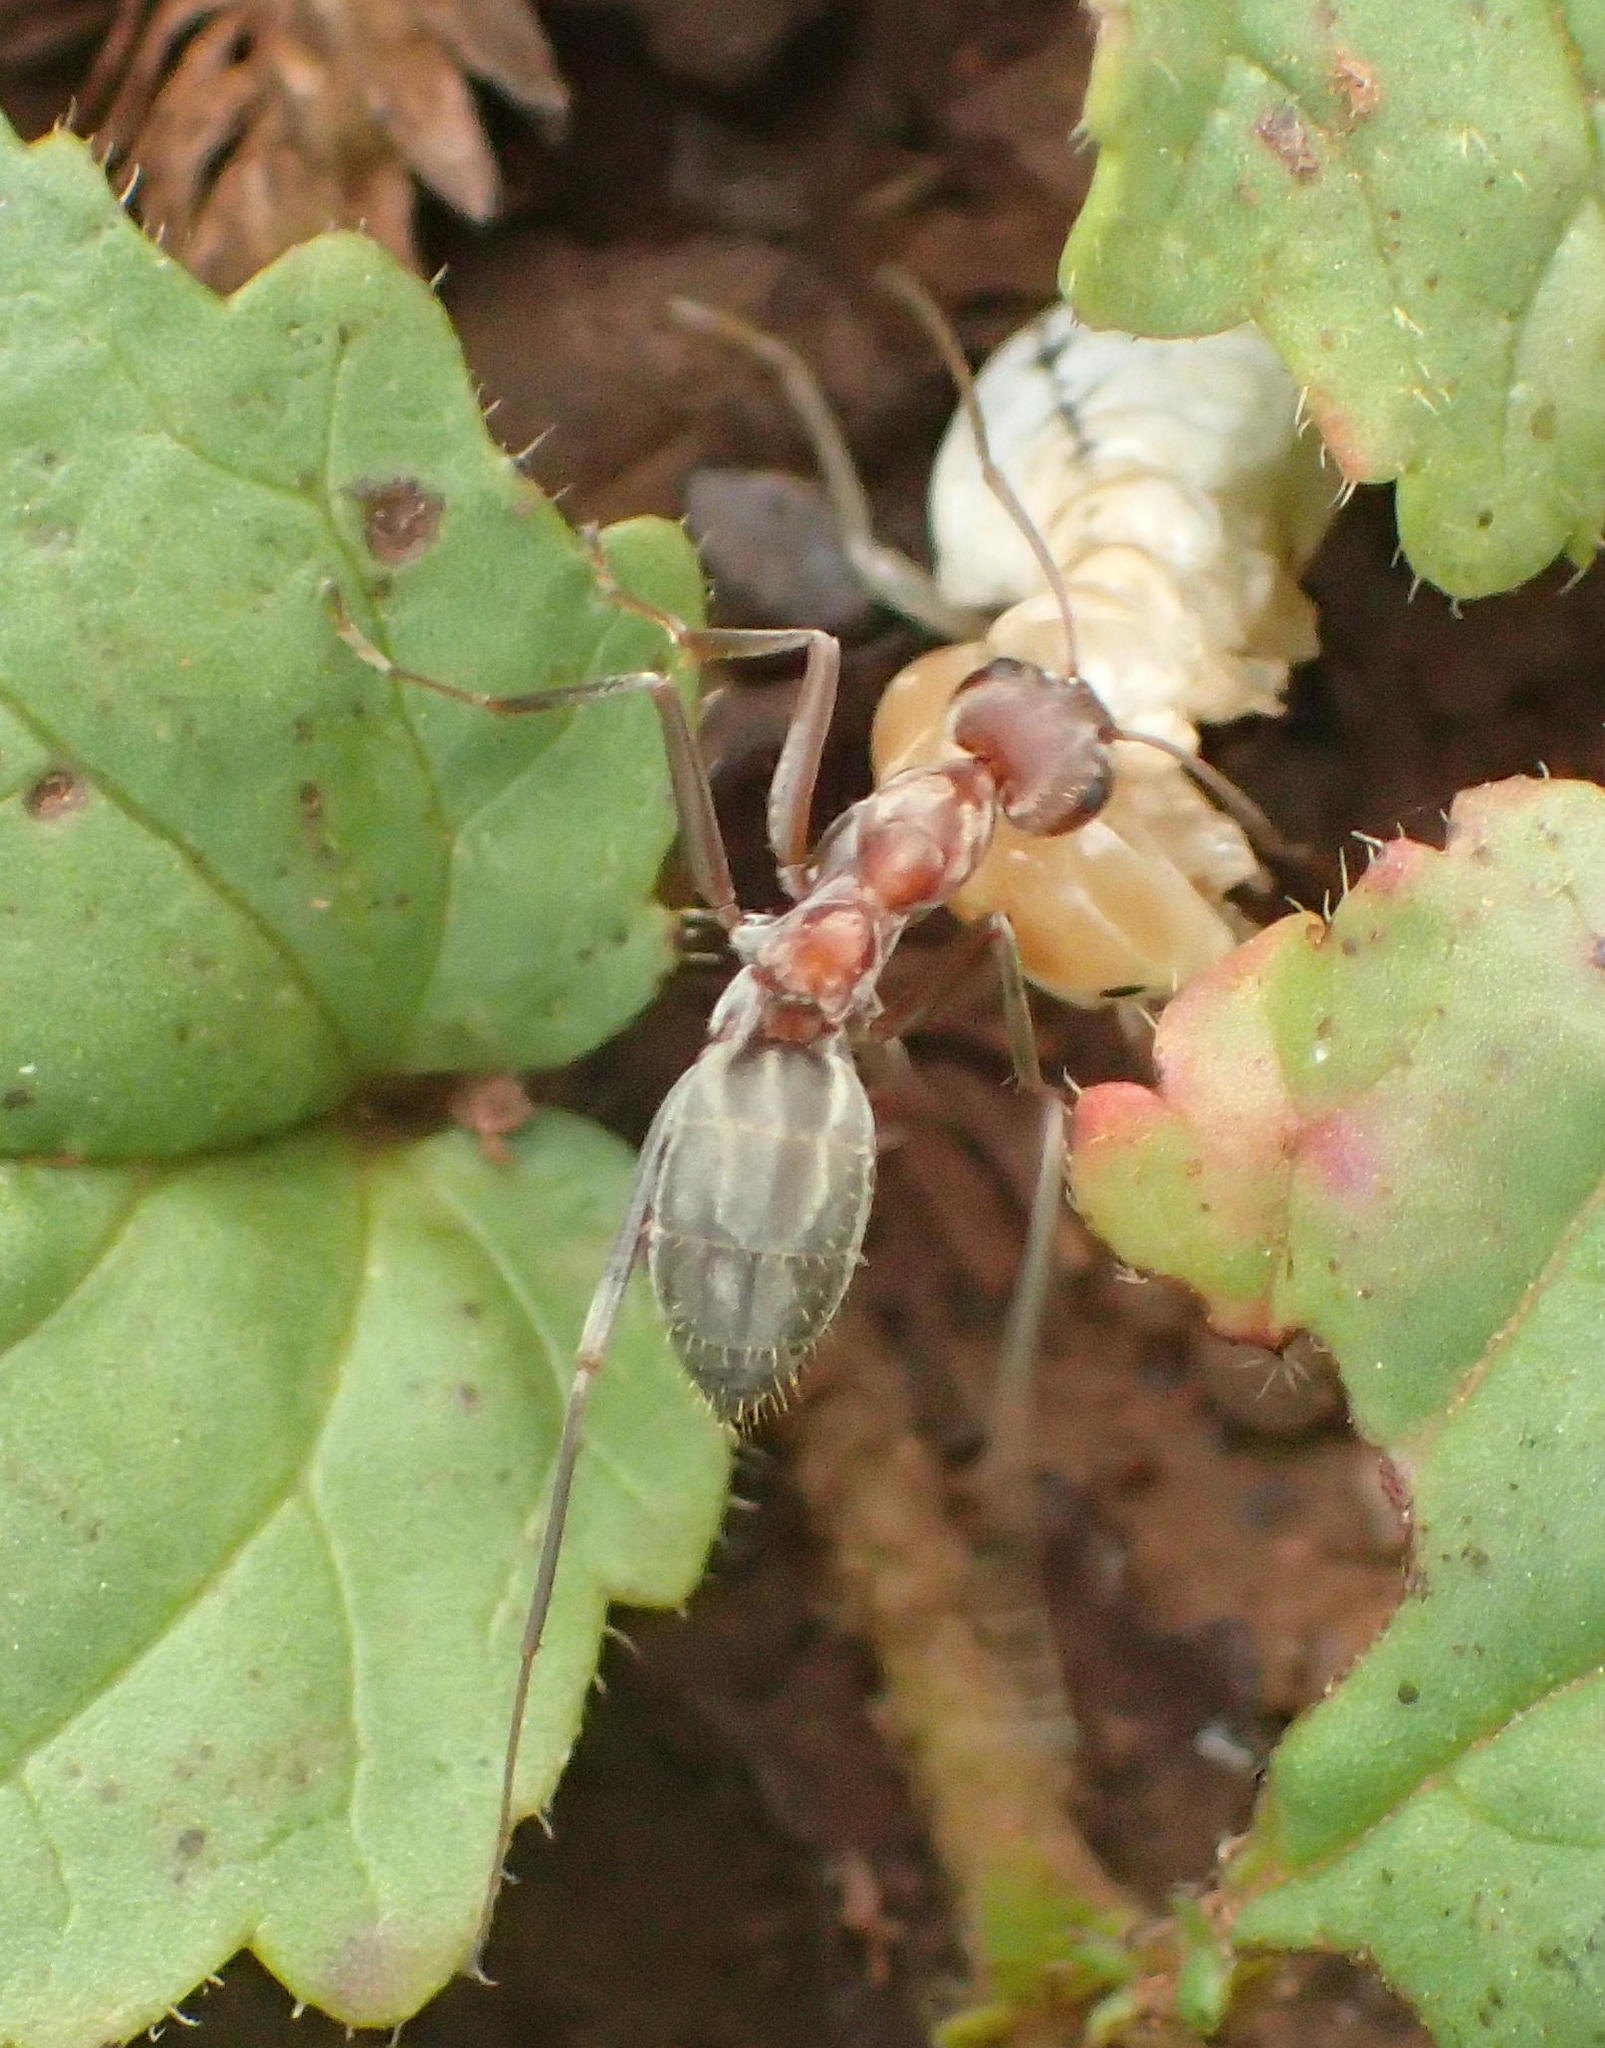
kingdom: Animalia
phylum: Arthropoda
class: Insecta
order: Hymenoptera
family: Formicidae
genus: Anoplolepis
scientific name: Anoplolepis custodiens
